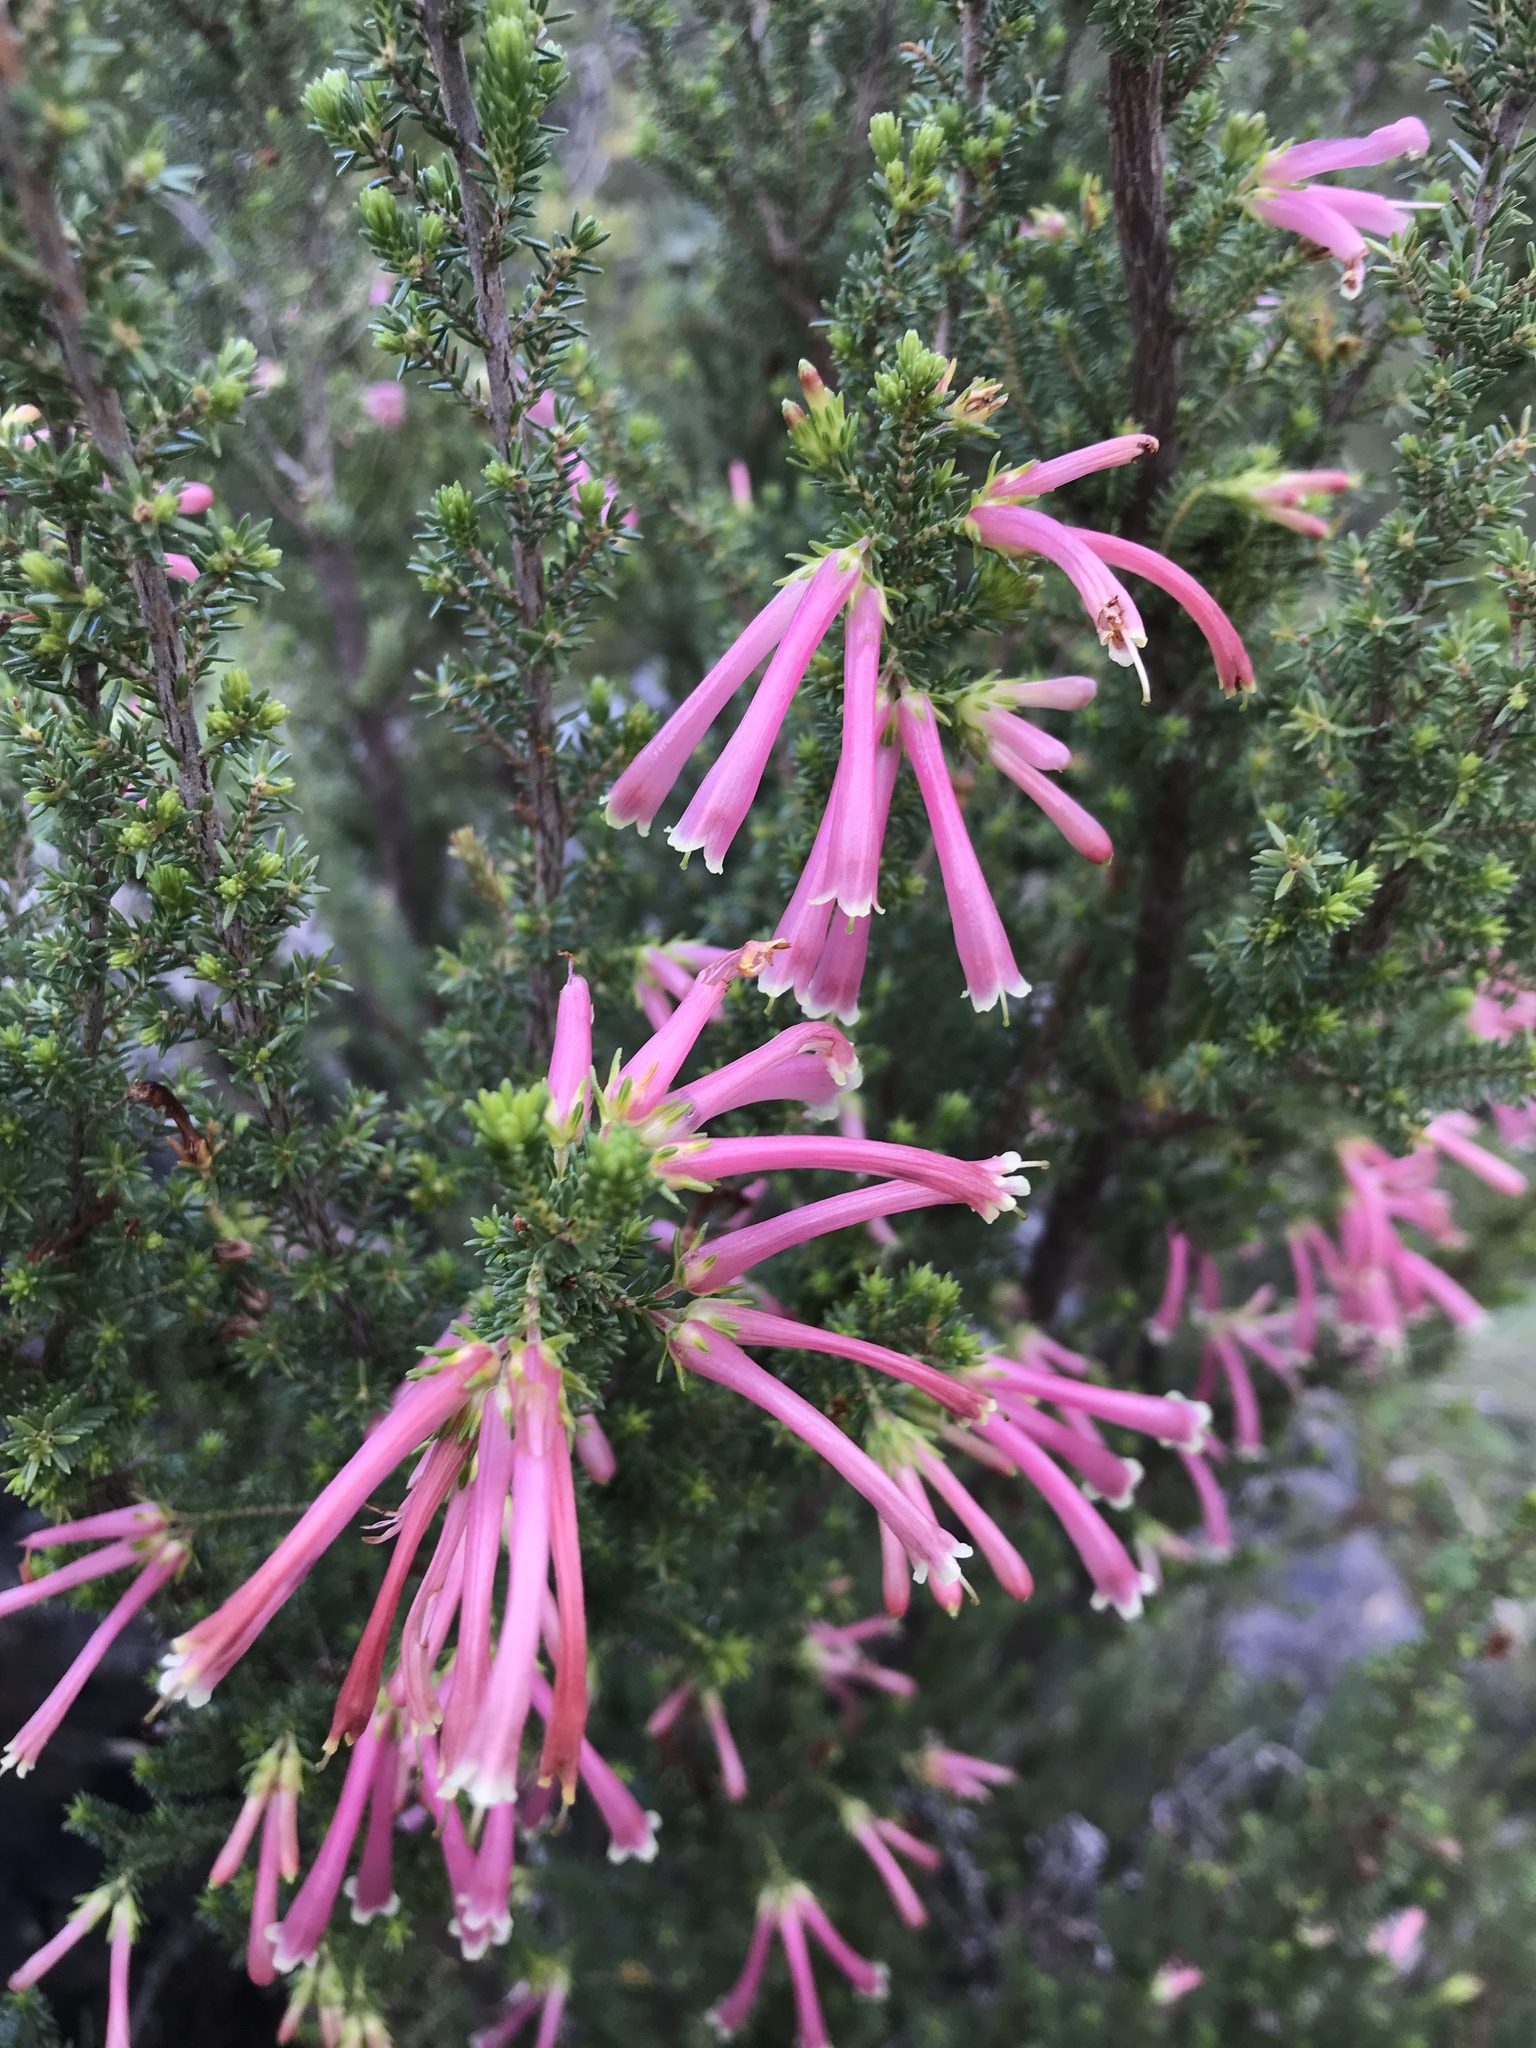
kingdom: Plantae
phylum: Tracheophyta
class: Magnoliopsida
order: Ericales
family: Ericaceae
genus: Erica
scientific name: Erica discolor
